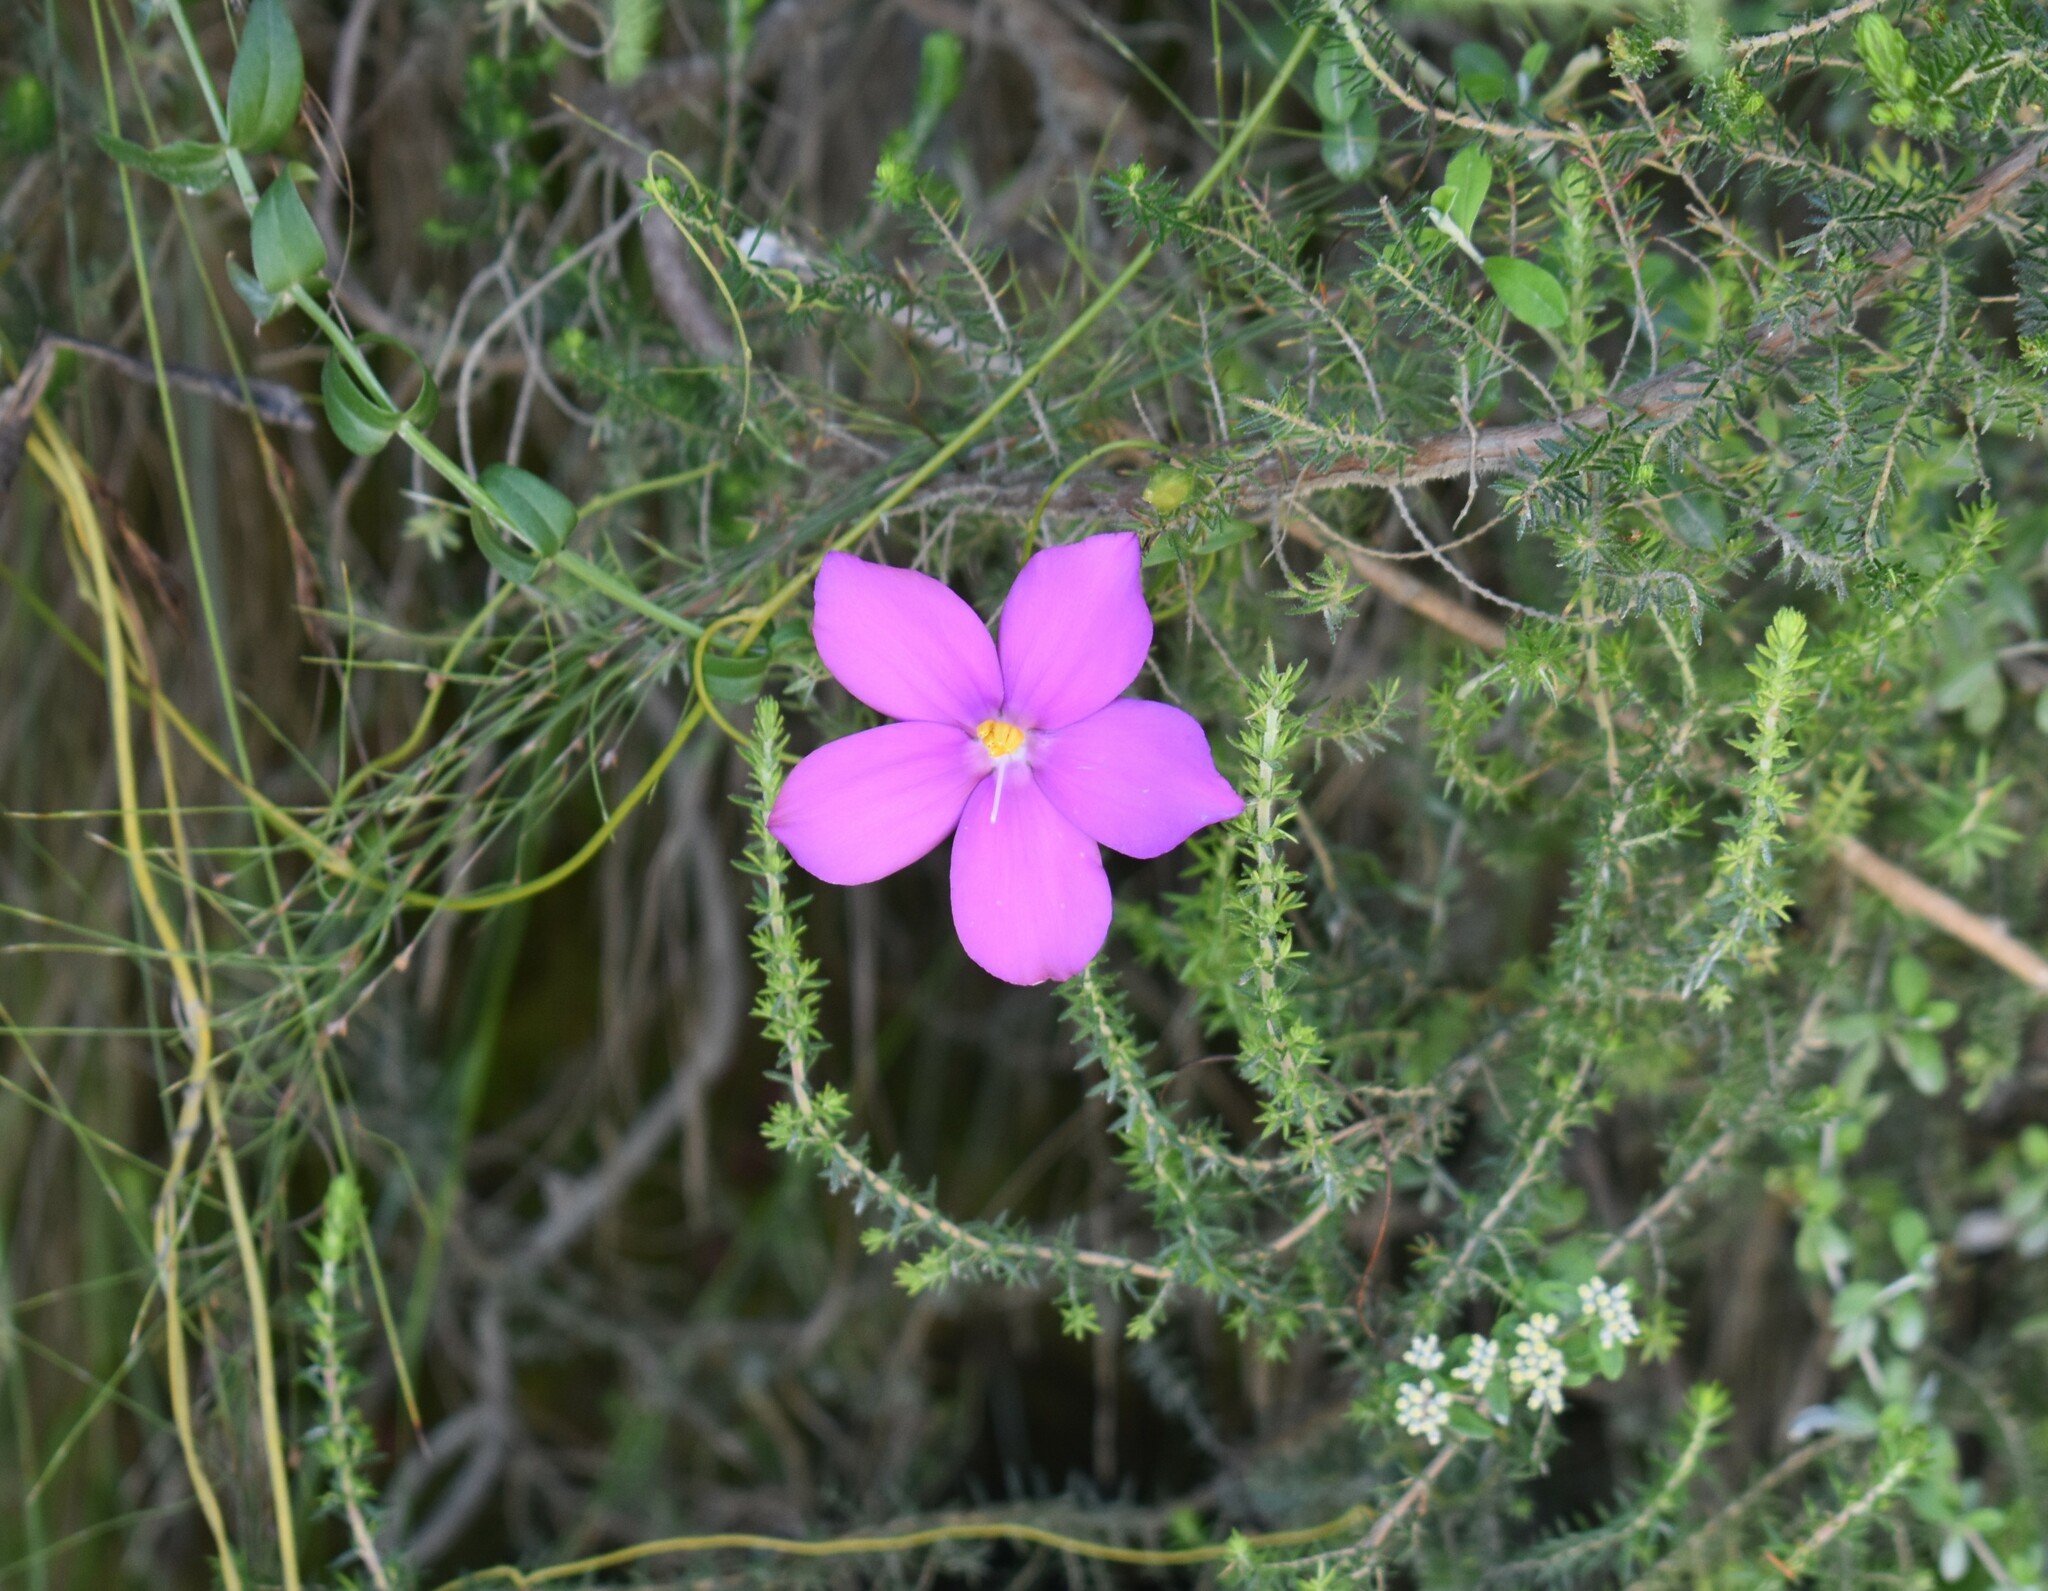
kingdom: Plantae
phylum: Tracheophyta
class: Magnoliopsida
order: Gentianales
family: Gentianaceae
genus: Chironia
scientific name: Chironia melampyrifolia
